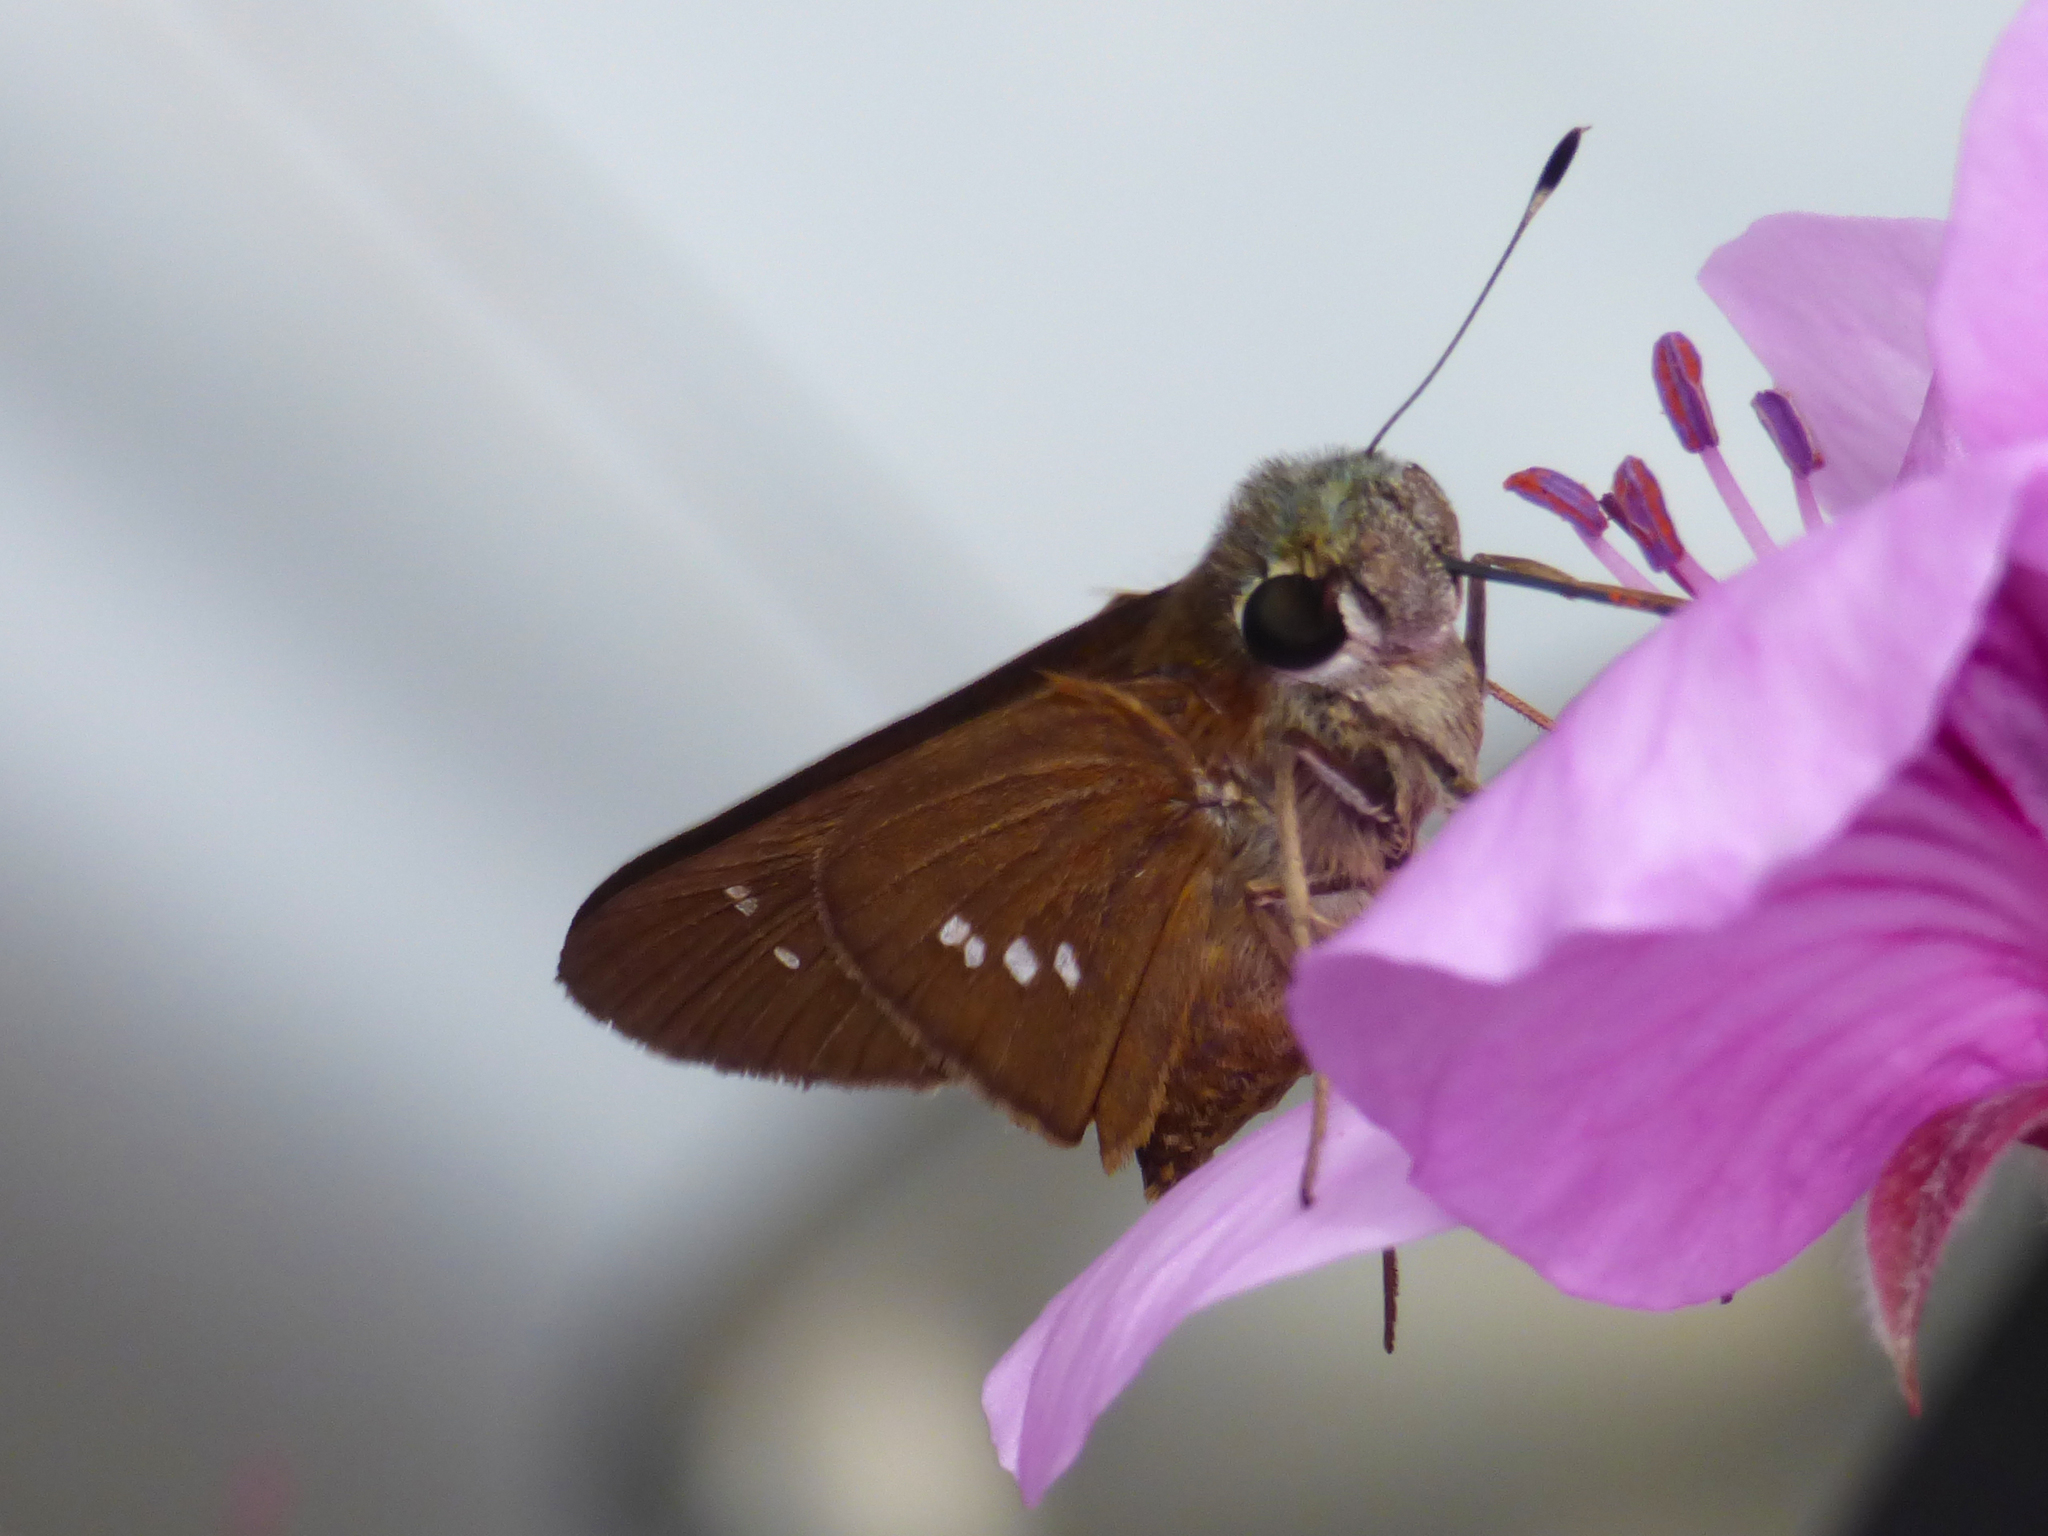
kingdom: Animalia
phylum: Arthropoda
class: Insecta
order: Lepidoptera
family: Hesperiidae
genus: Calpodes
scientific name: Calpodes ethlius
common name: Brazilian skipper
